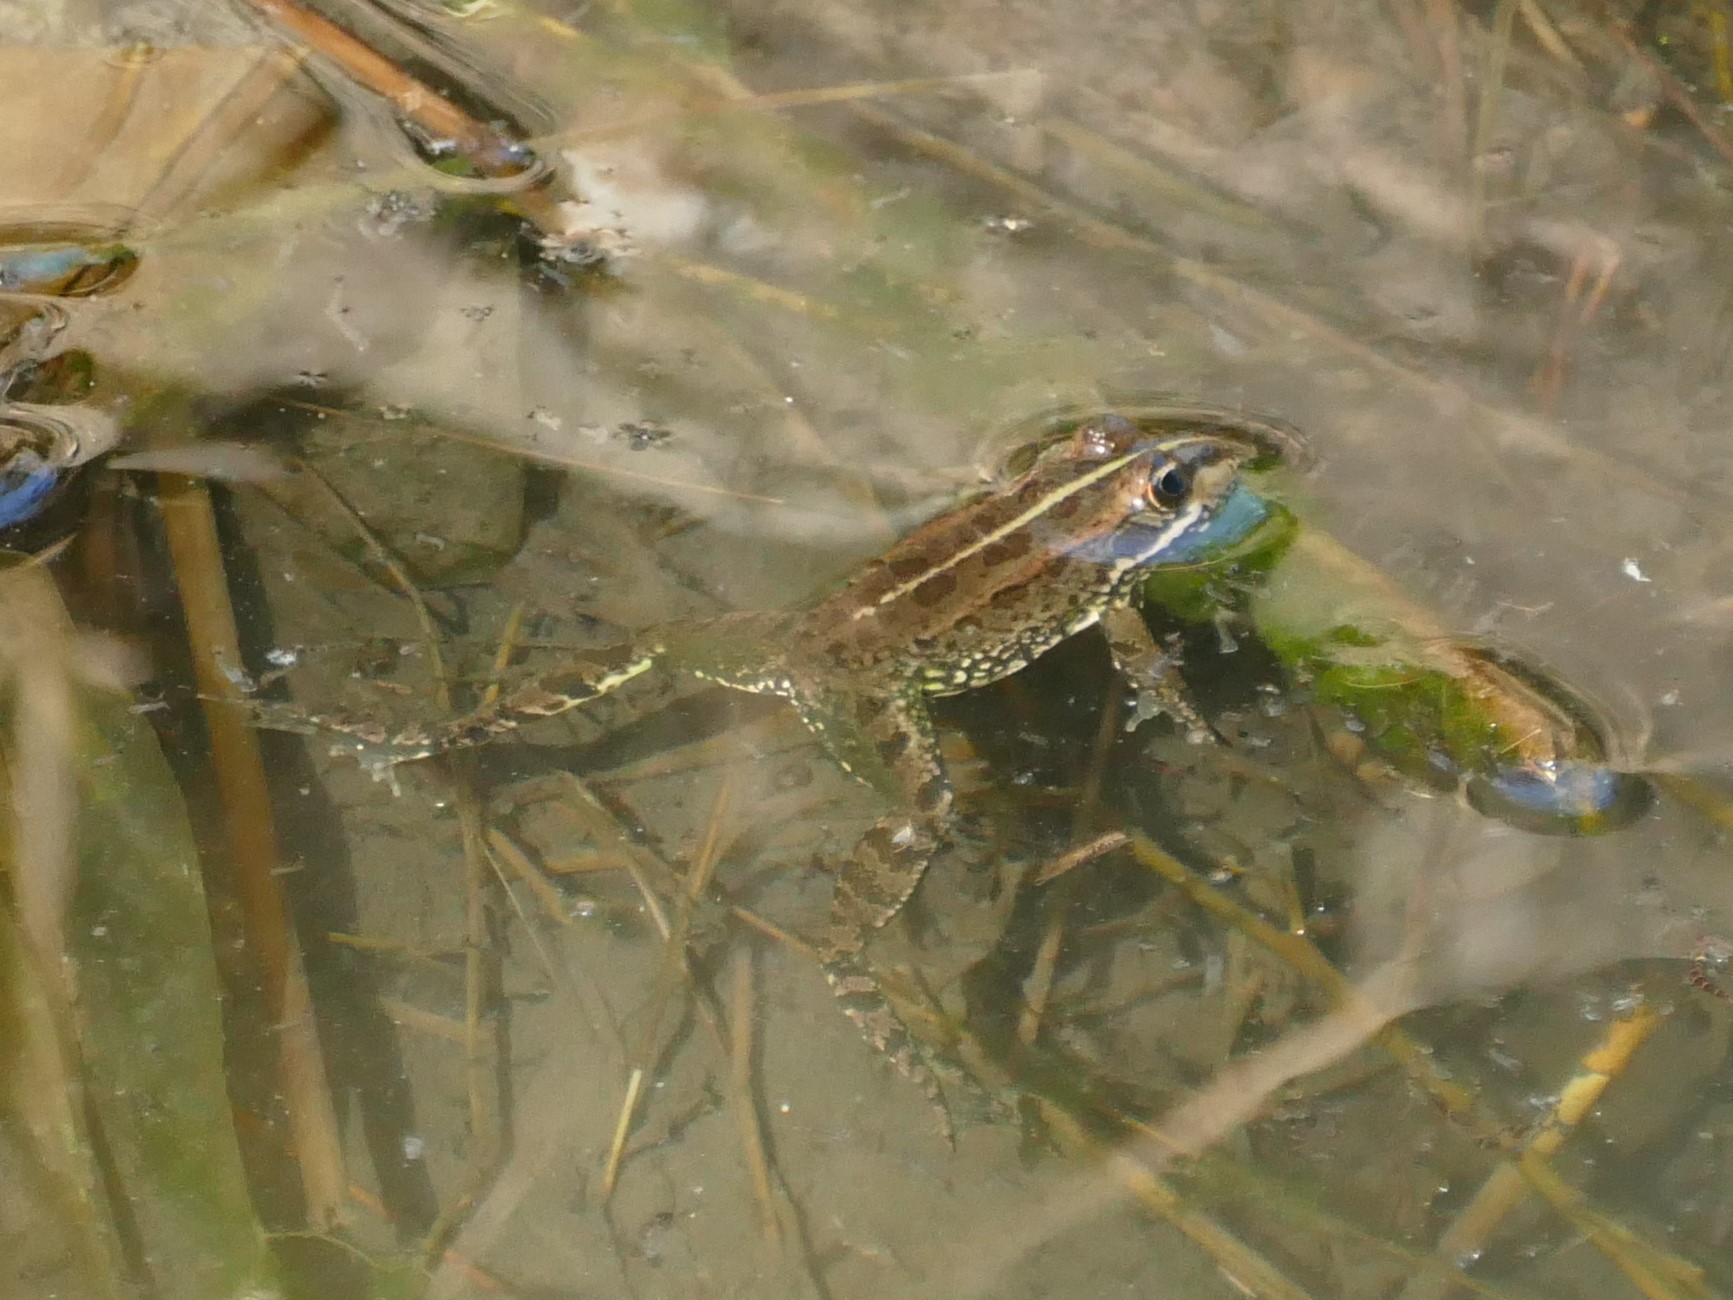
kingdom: Animalia
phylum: Chordata
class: Amphibia
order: Anura
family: Ranidae
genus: Pelophylax
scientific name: Pelophylax perezi
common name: Perez's frog
